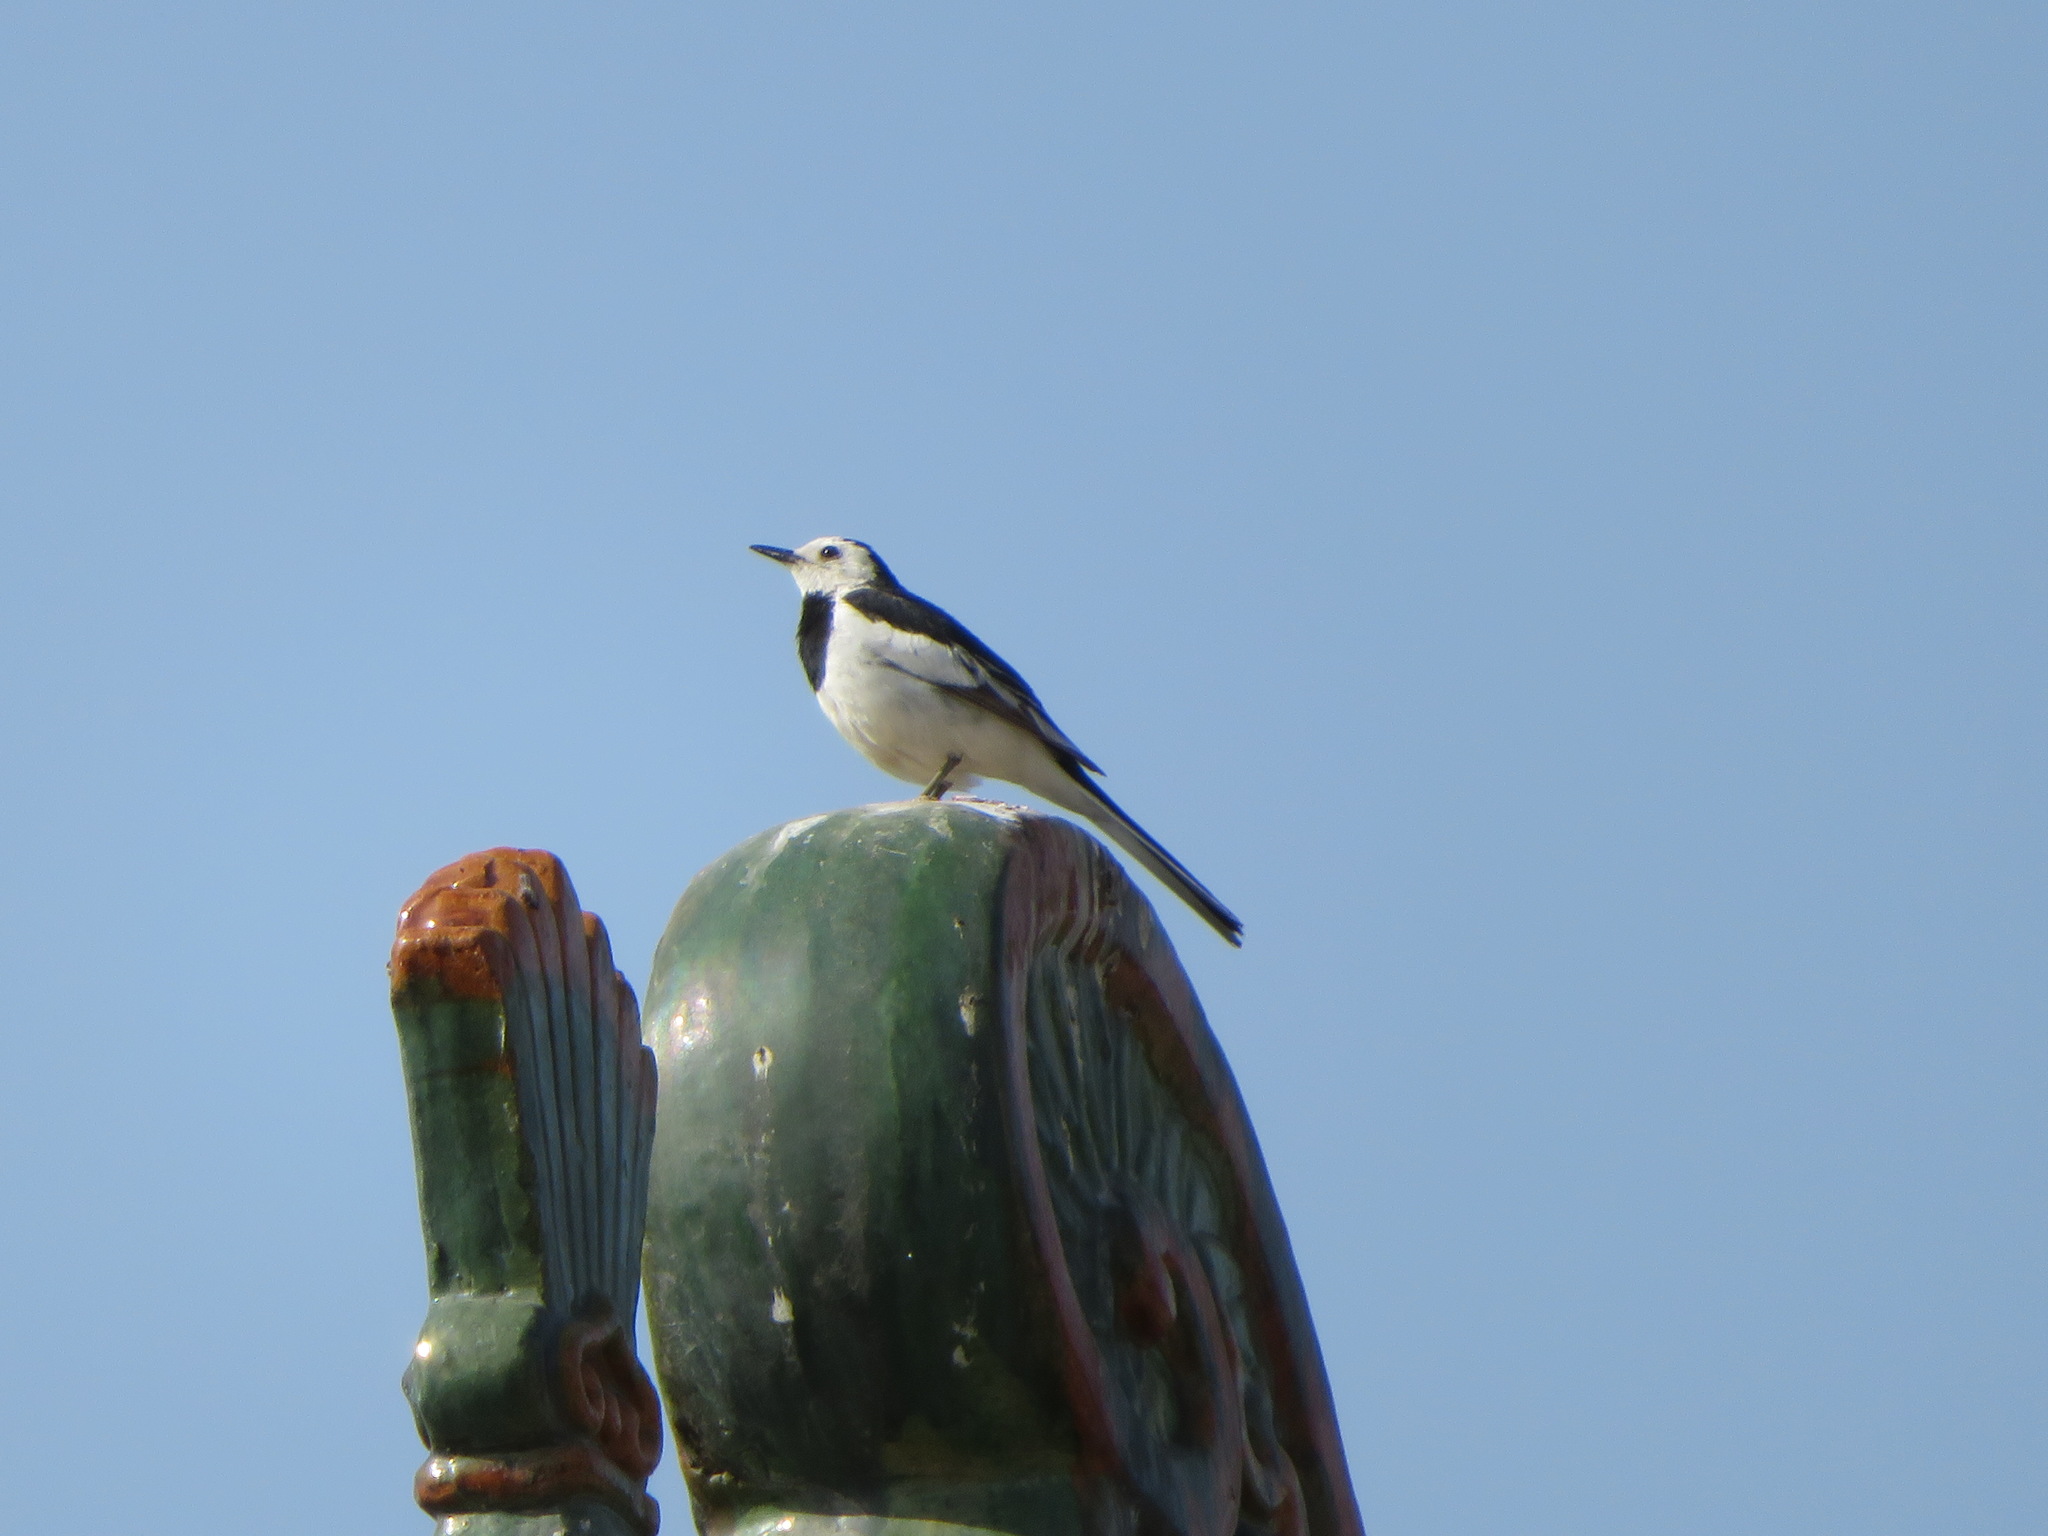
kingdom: Animalia
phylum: Chordata
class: Aves
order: Passeriformes
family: Motacillidae
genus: Motacilla
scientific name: Motacilla alba
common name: White wagtail
